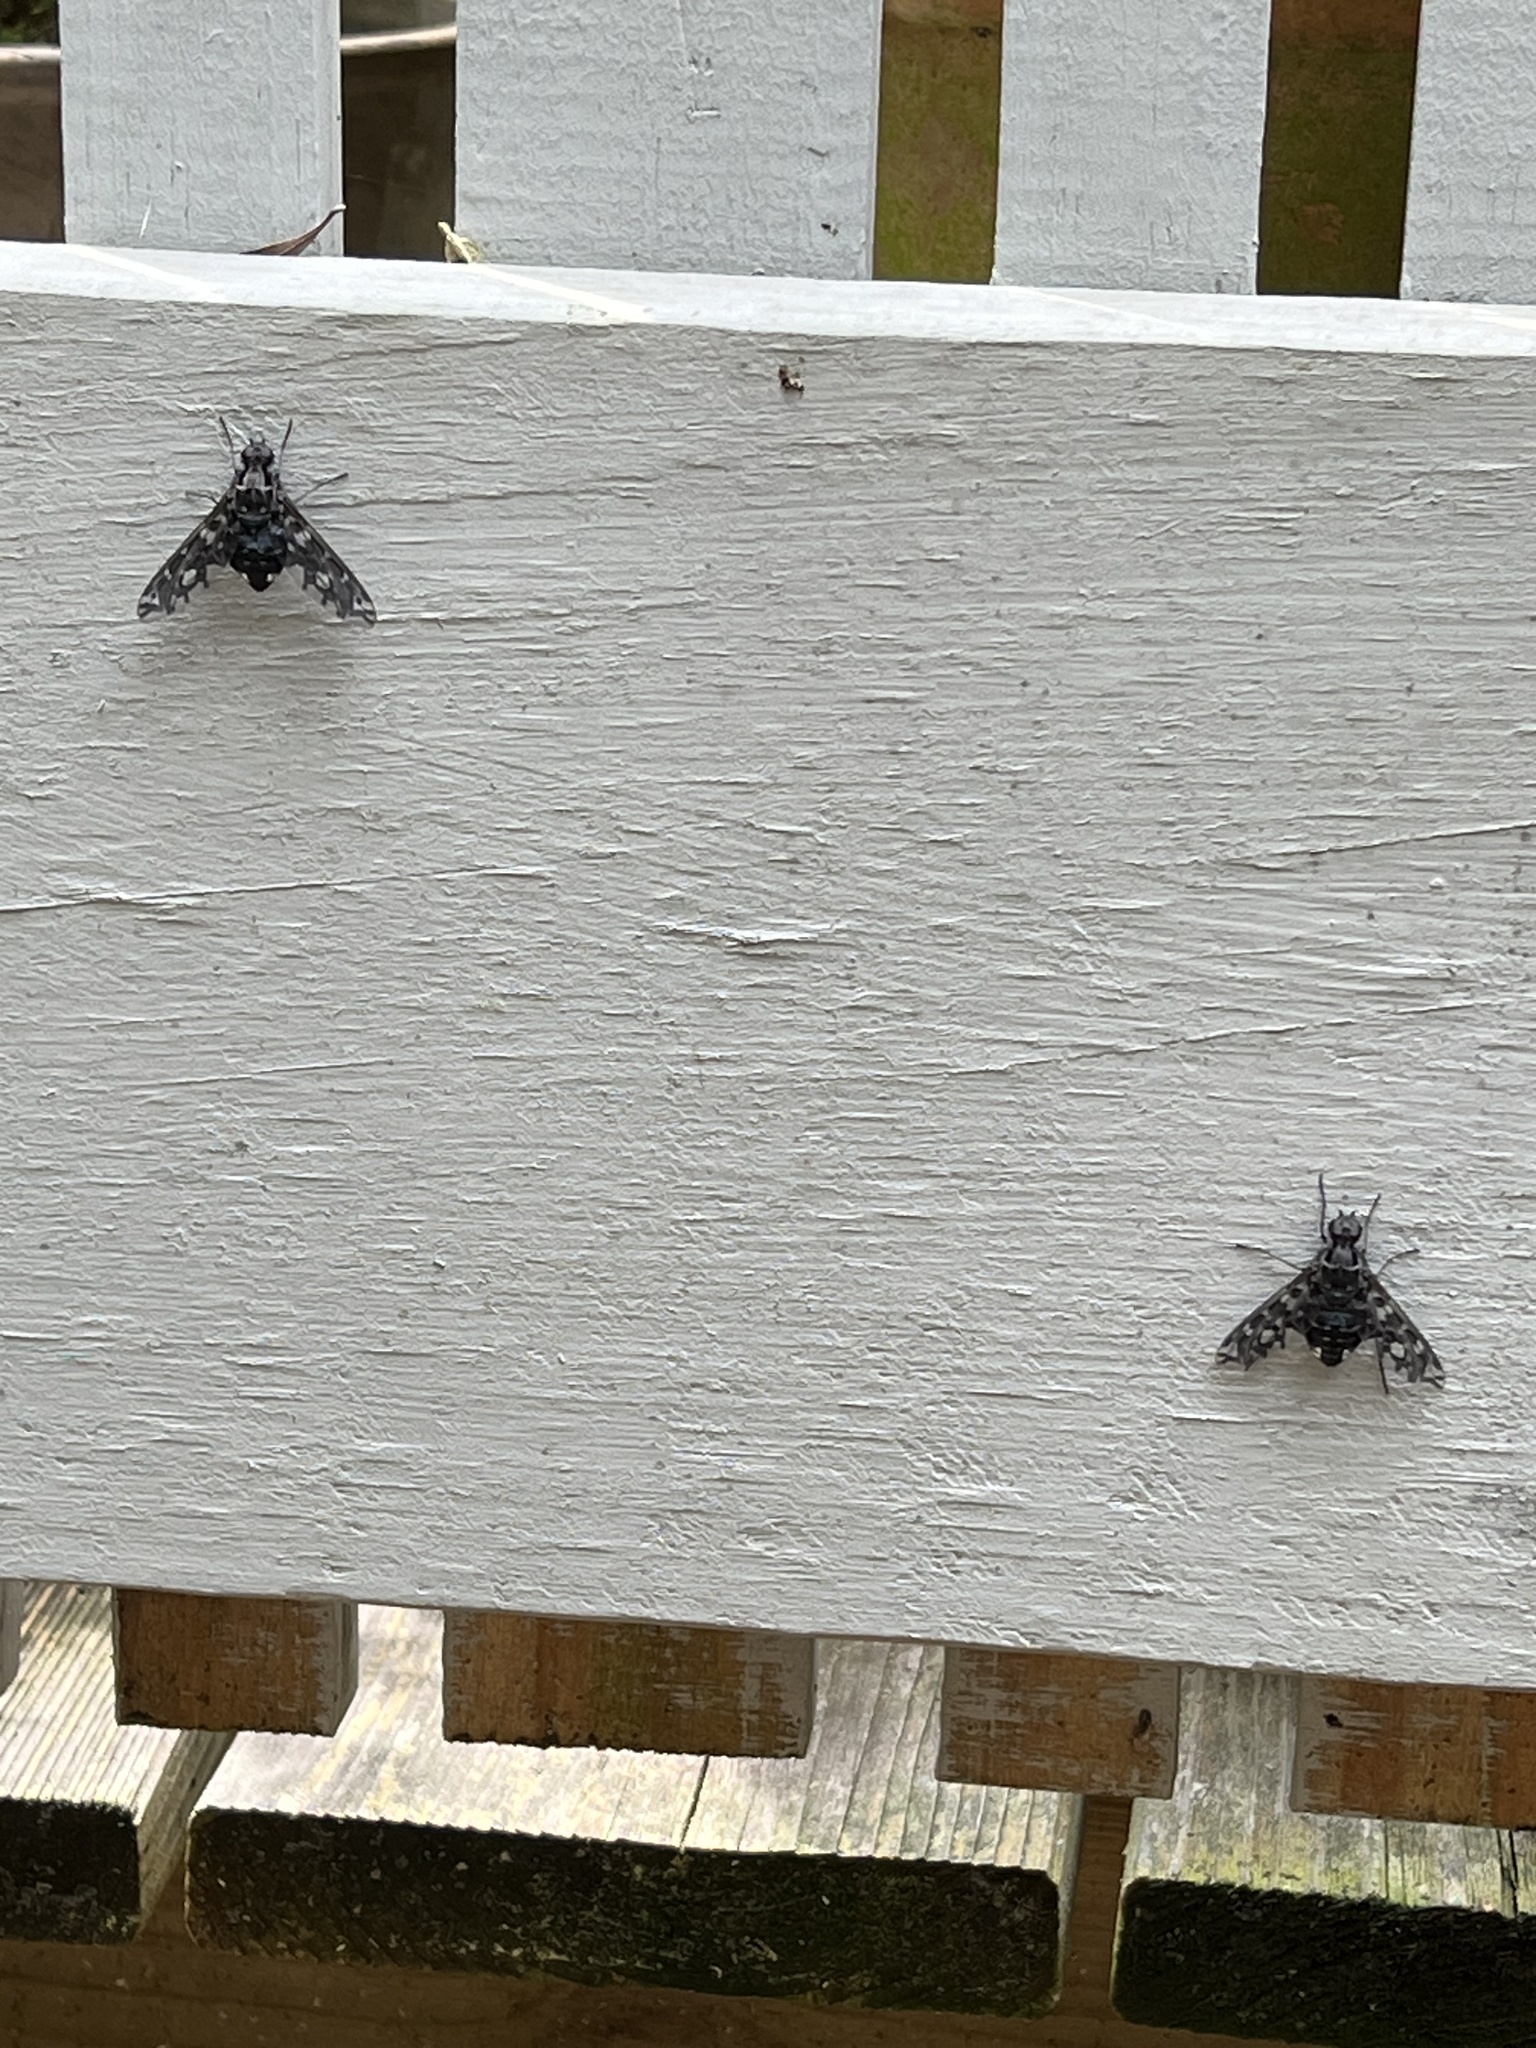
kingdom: Animalia
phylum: Arthropoda
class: Insecta
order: Diptera
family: Bombyliidae
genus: Xenox
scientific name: Xenox tigrinus
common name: Tiger bee fly
